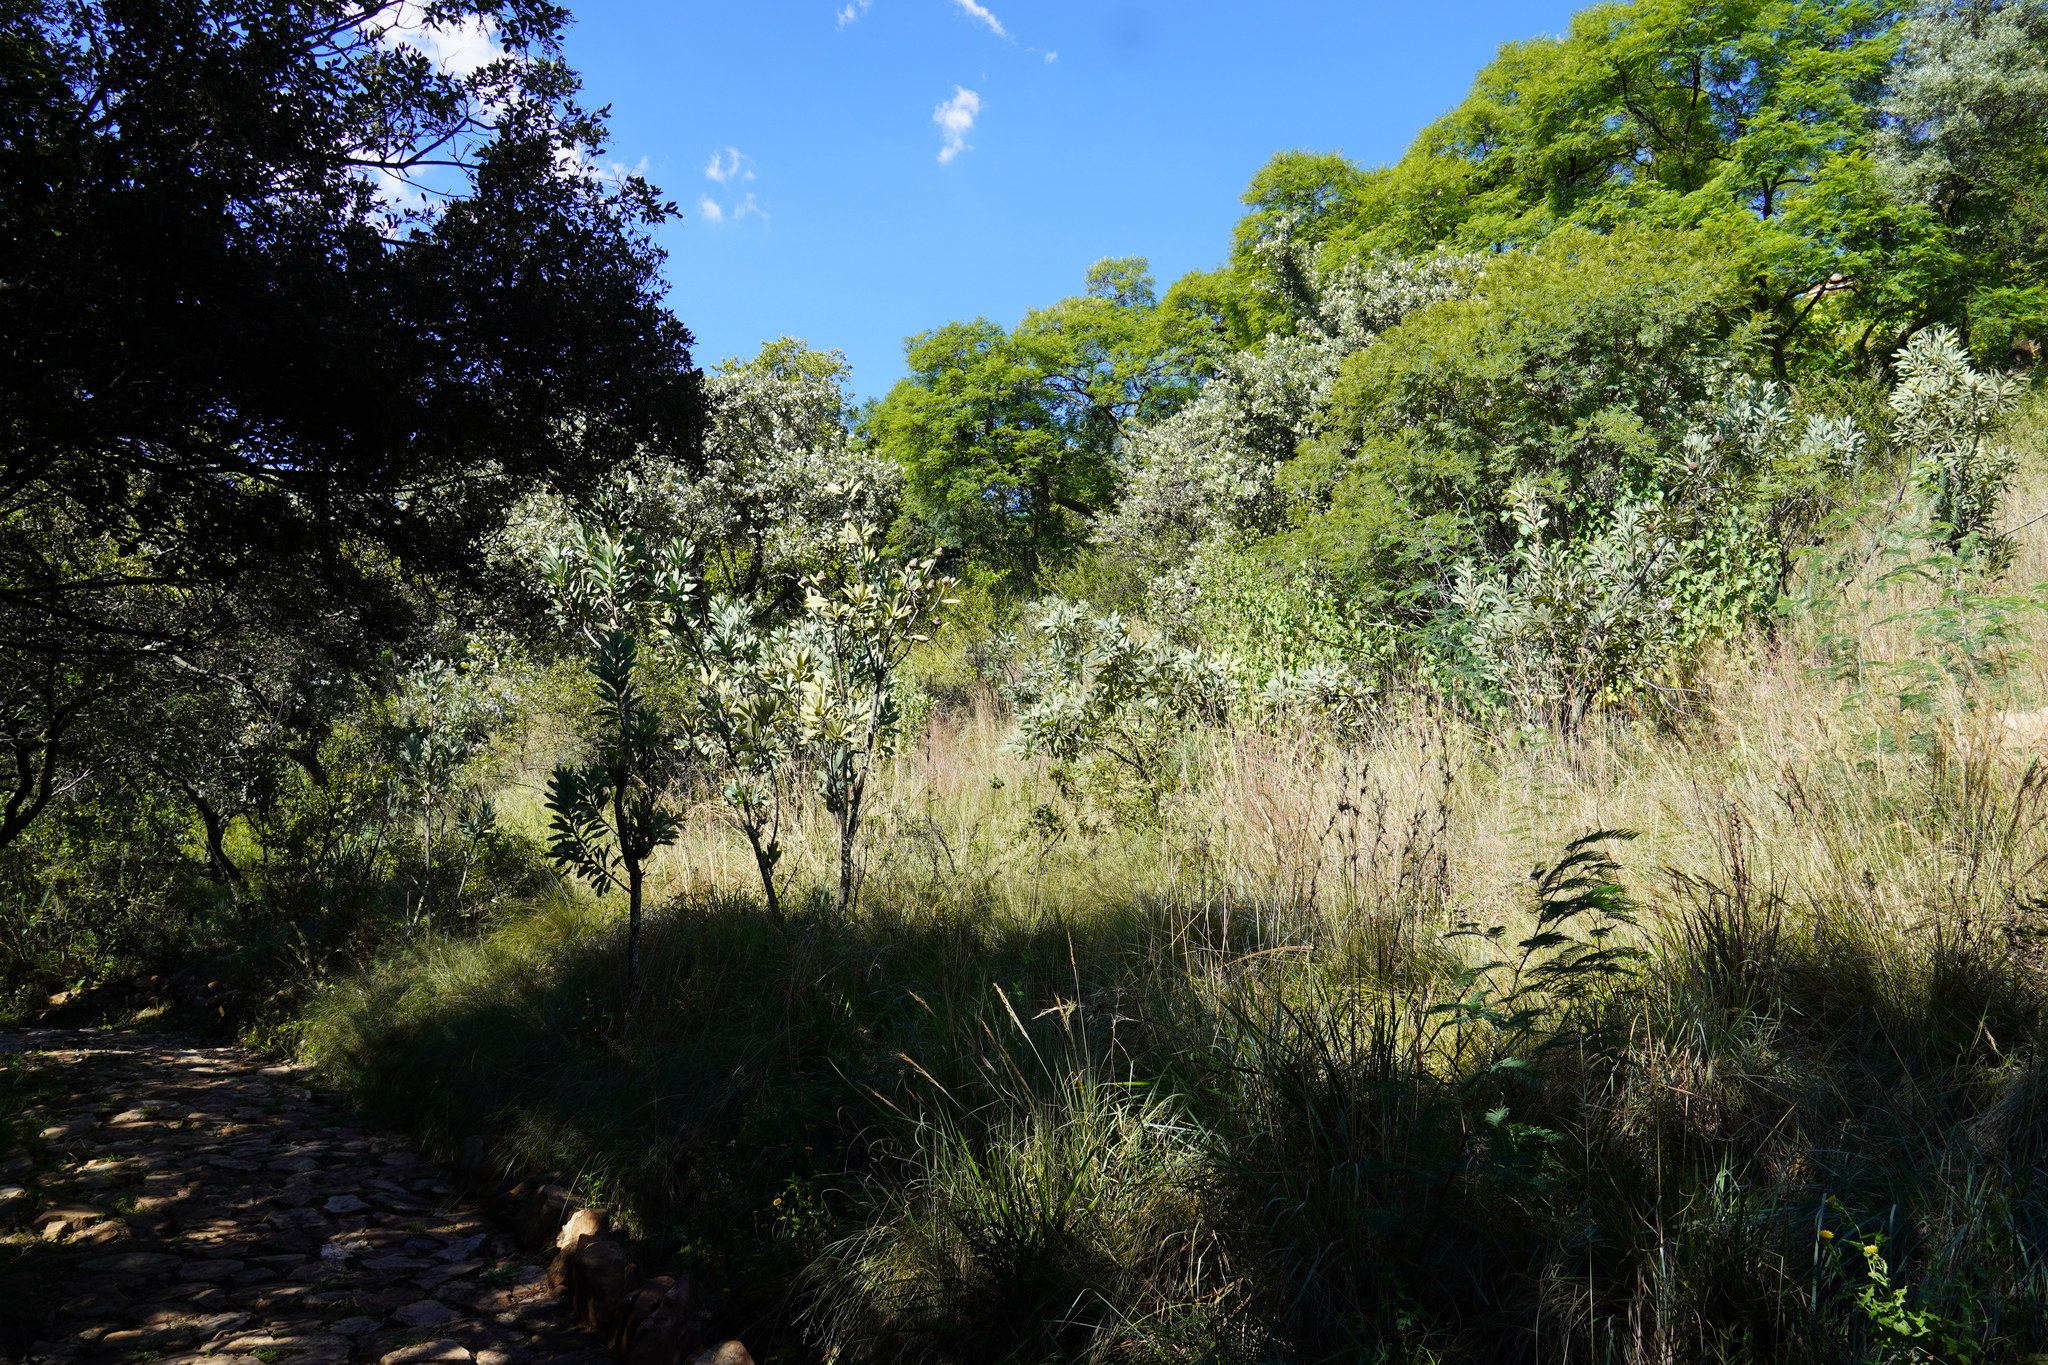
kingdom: Plantae
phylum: Tracheophyta
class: Magnoliopsida
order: Proteales
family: Proteaceae
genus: Protea
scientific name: Protea caffra
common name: Common sugarbush
